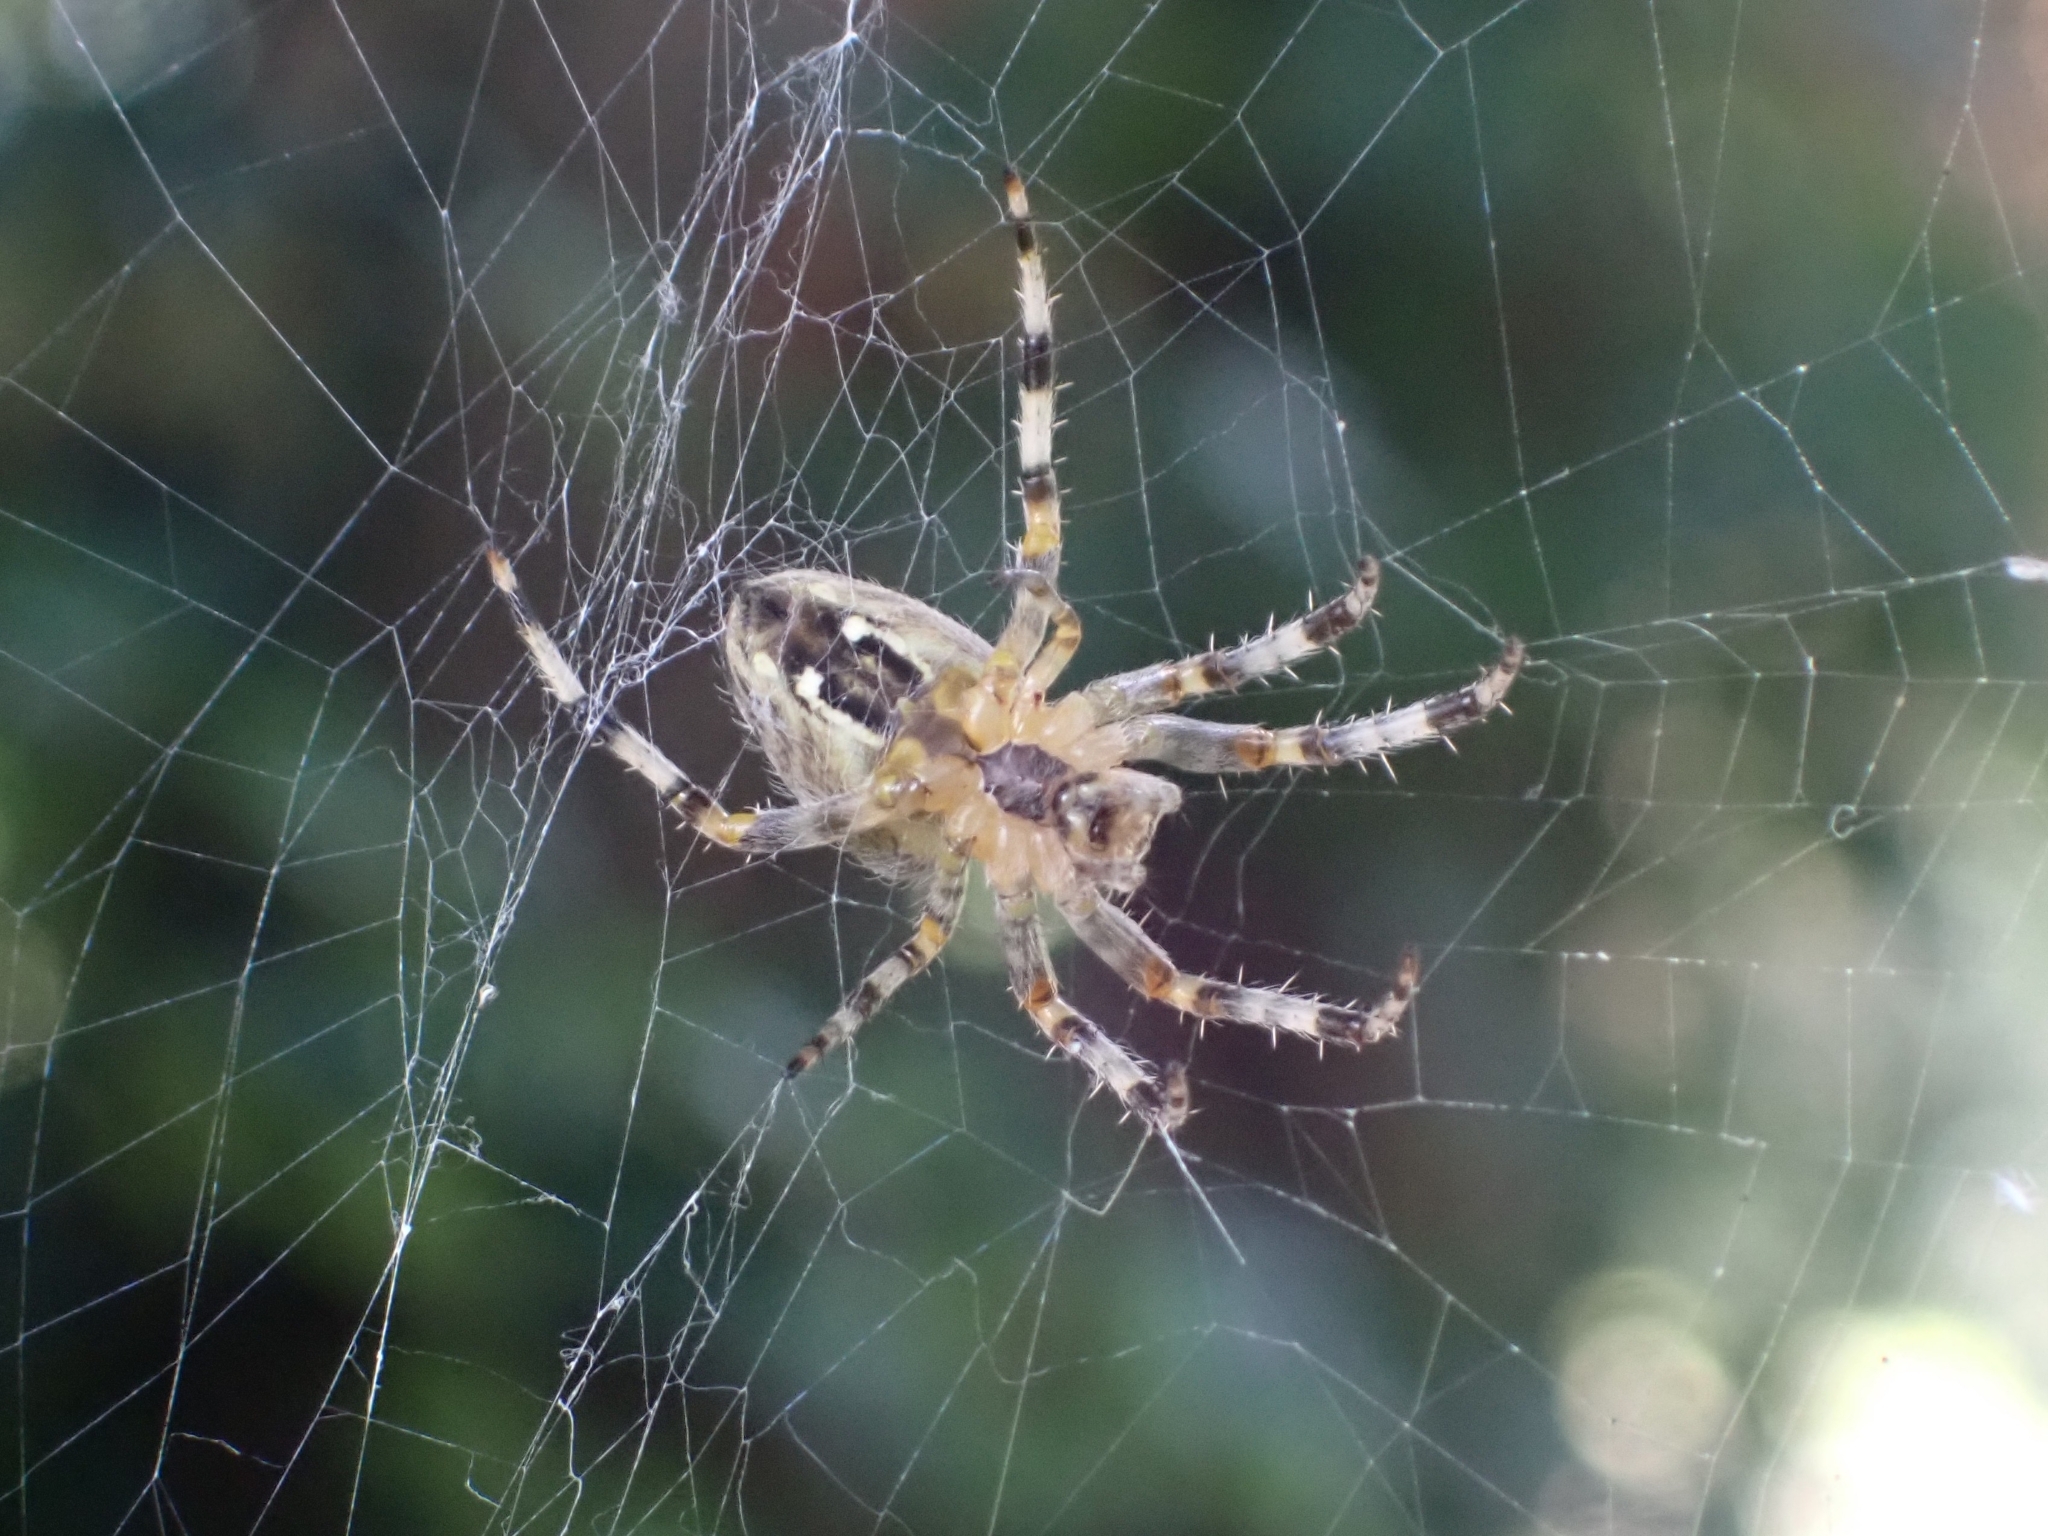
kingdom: Animalia
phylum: Arthropoda
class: Arachnida
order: Araneae
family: Araneidae
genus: Araneus
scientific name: Araneus diadematus
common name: Cross orbweaver
